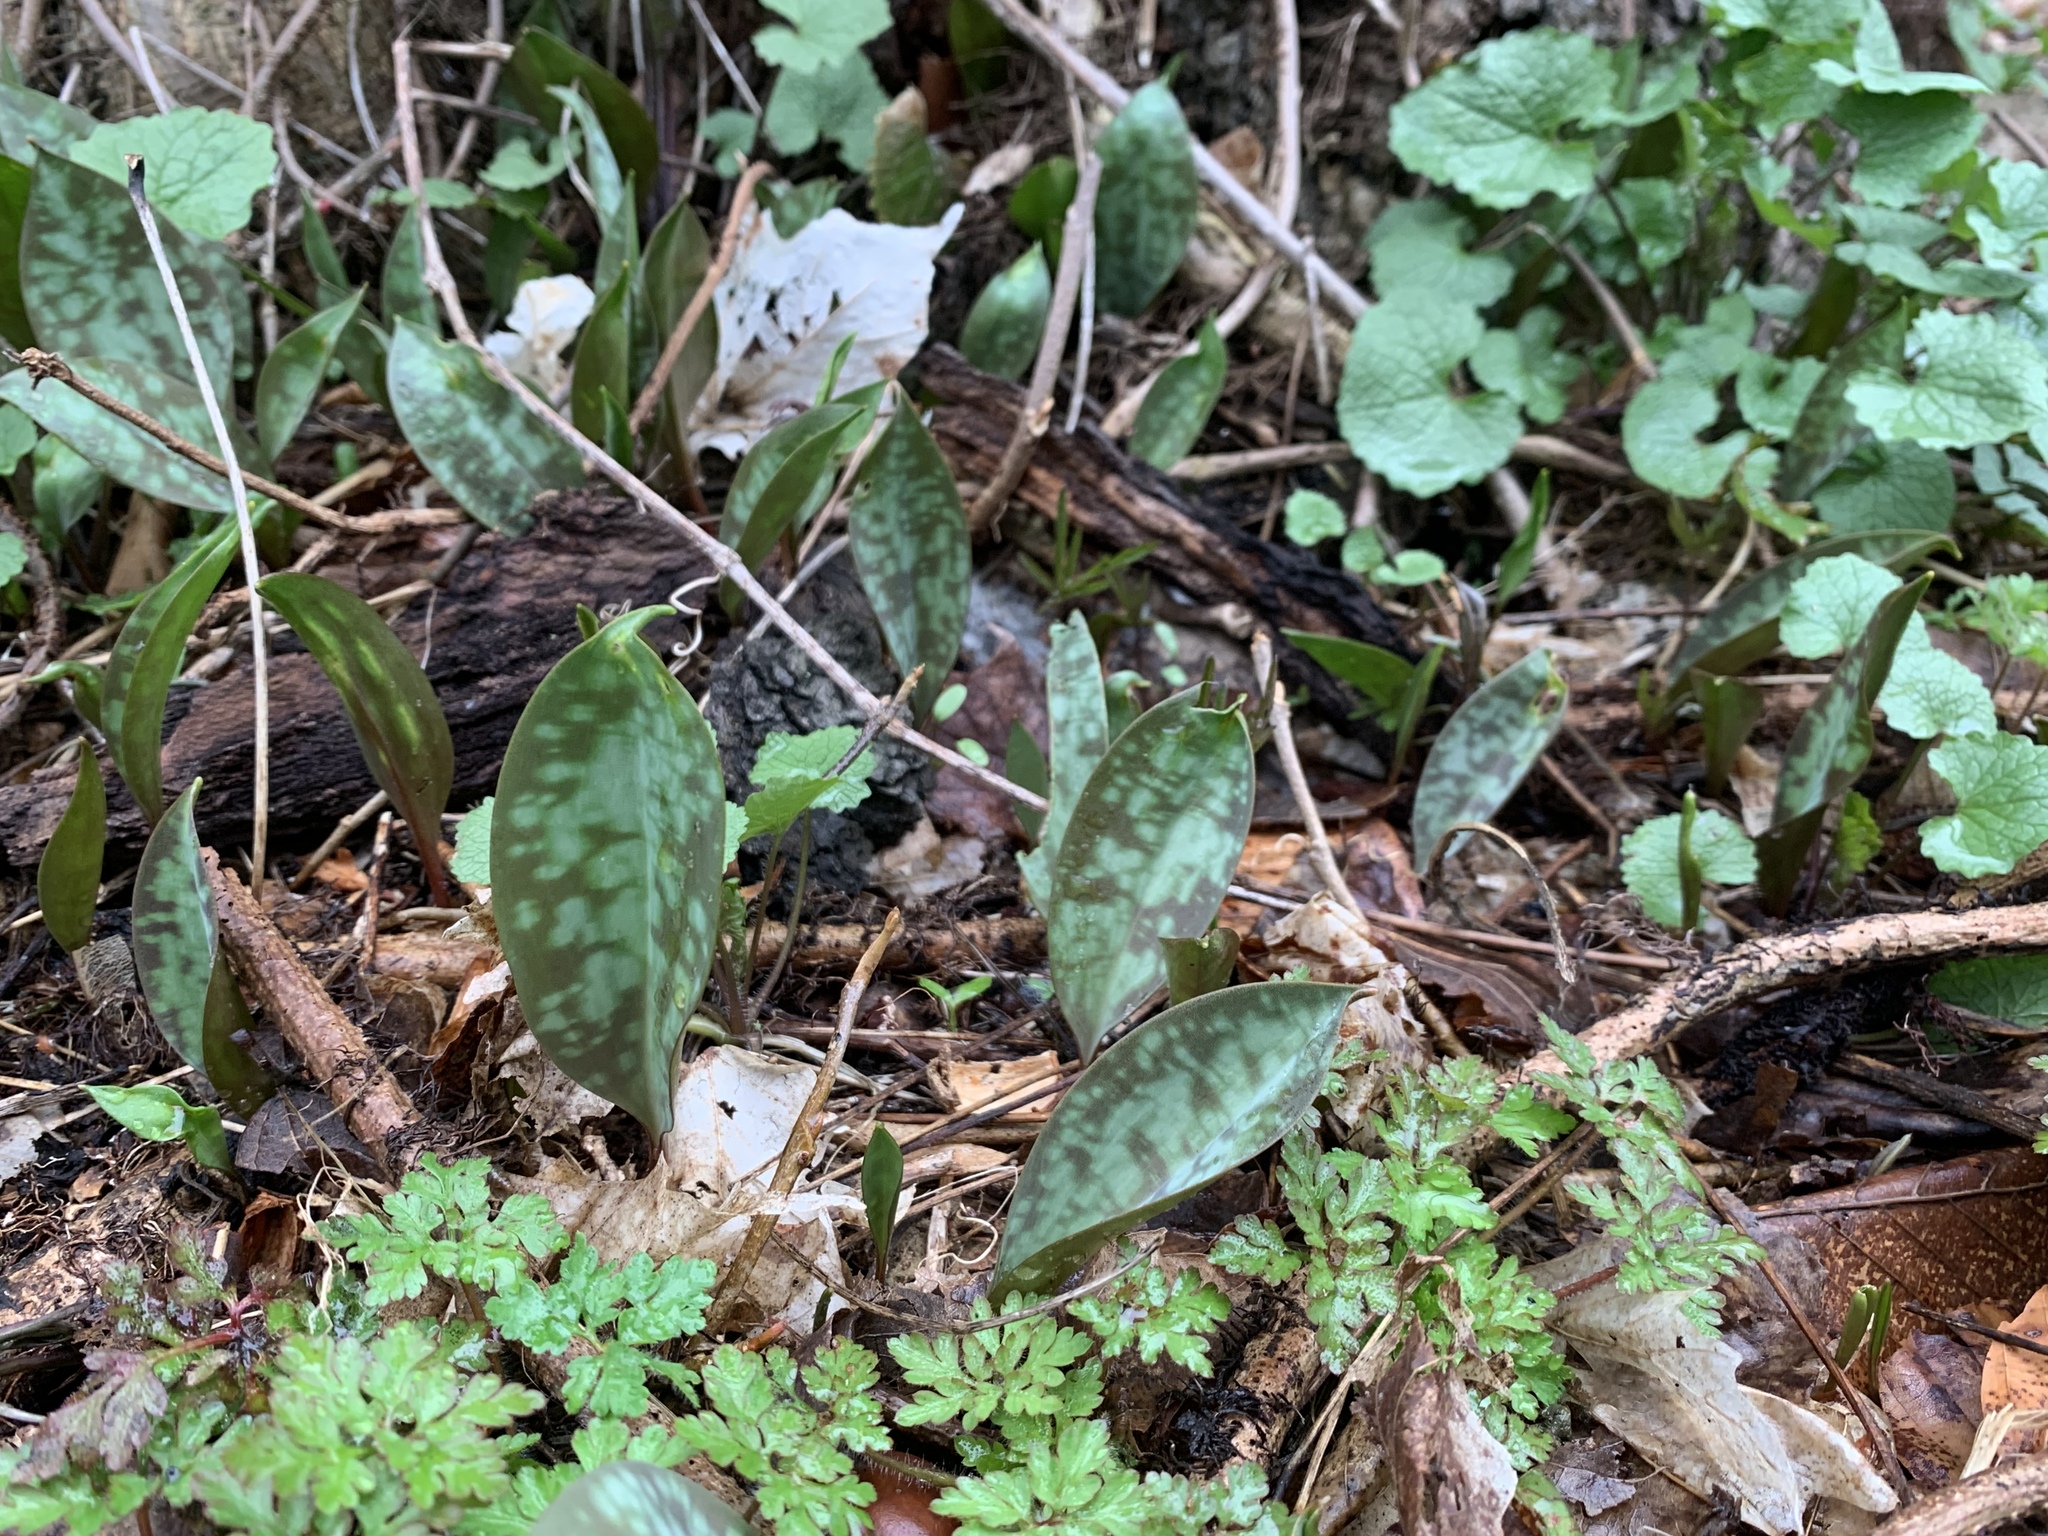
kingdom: Plantae
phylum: Tracheophyta
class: Liliopsida
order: Liliales
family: Liliaceae
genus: Erythronium
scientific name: Erythronium americanum
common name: Yellow adder's-tongue
